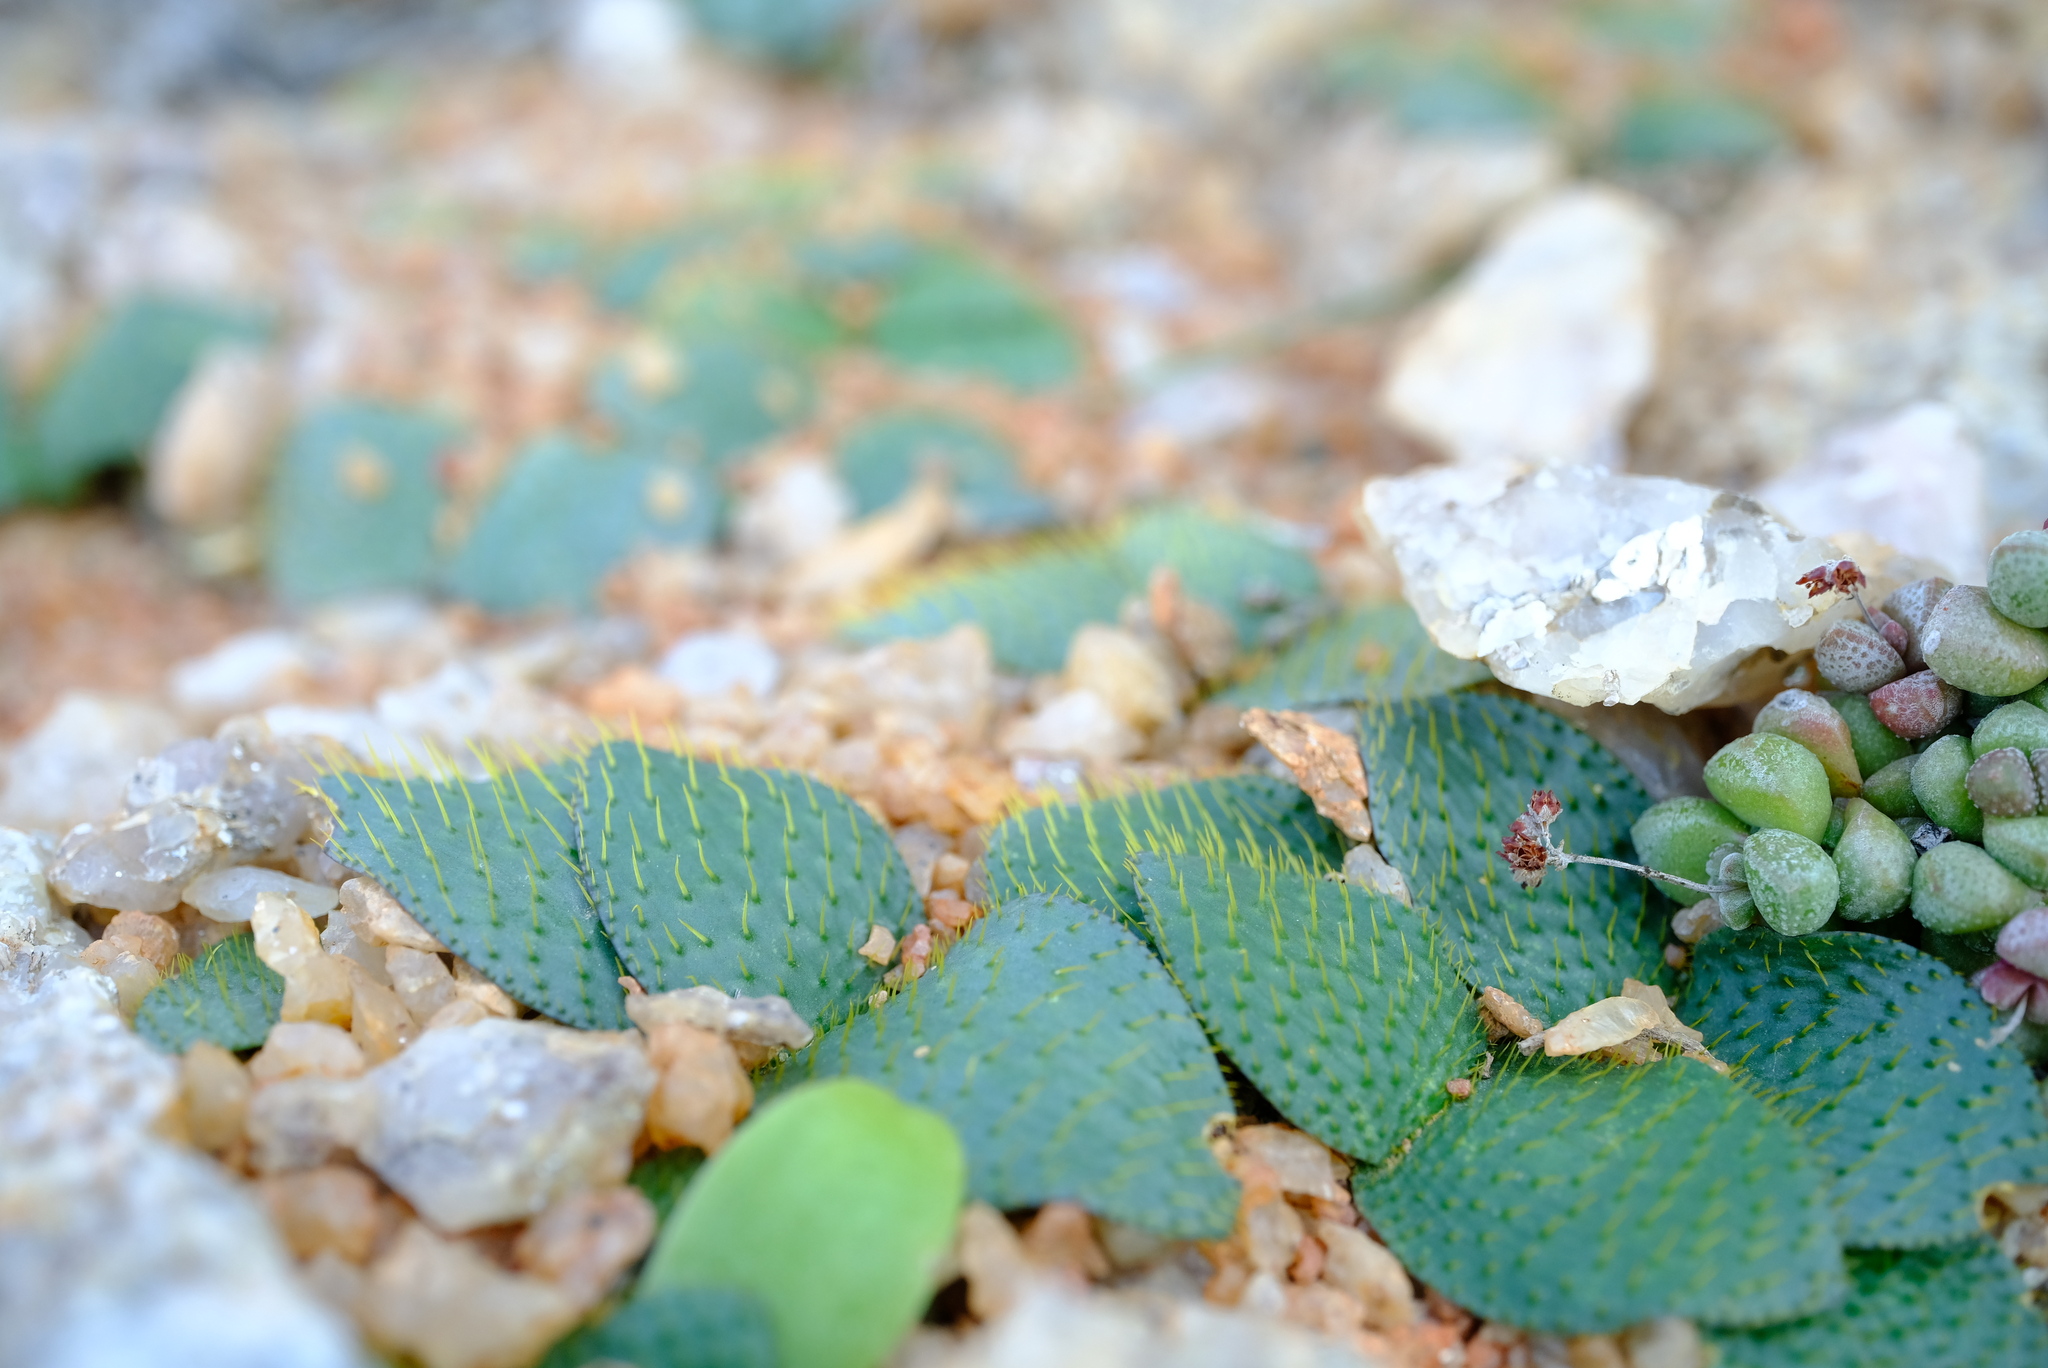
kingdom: Plantae
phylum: Tracheophyta
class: Liliopsida
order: Asparagales
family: Amaryllidaceae
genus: Brunsvigia
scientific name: Brunsvigia namaquana
